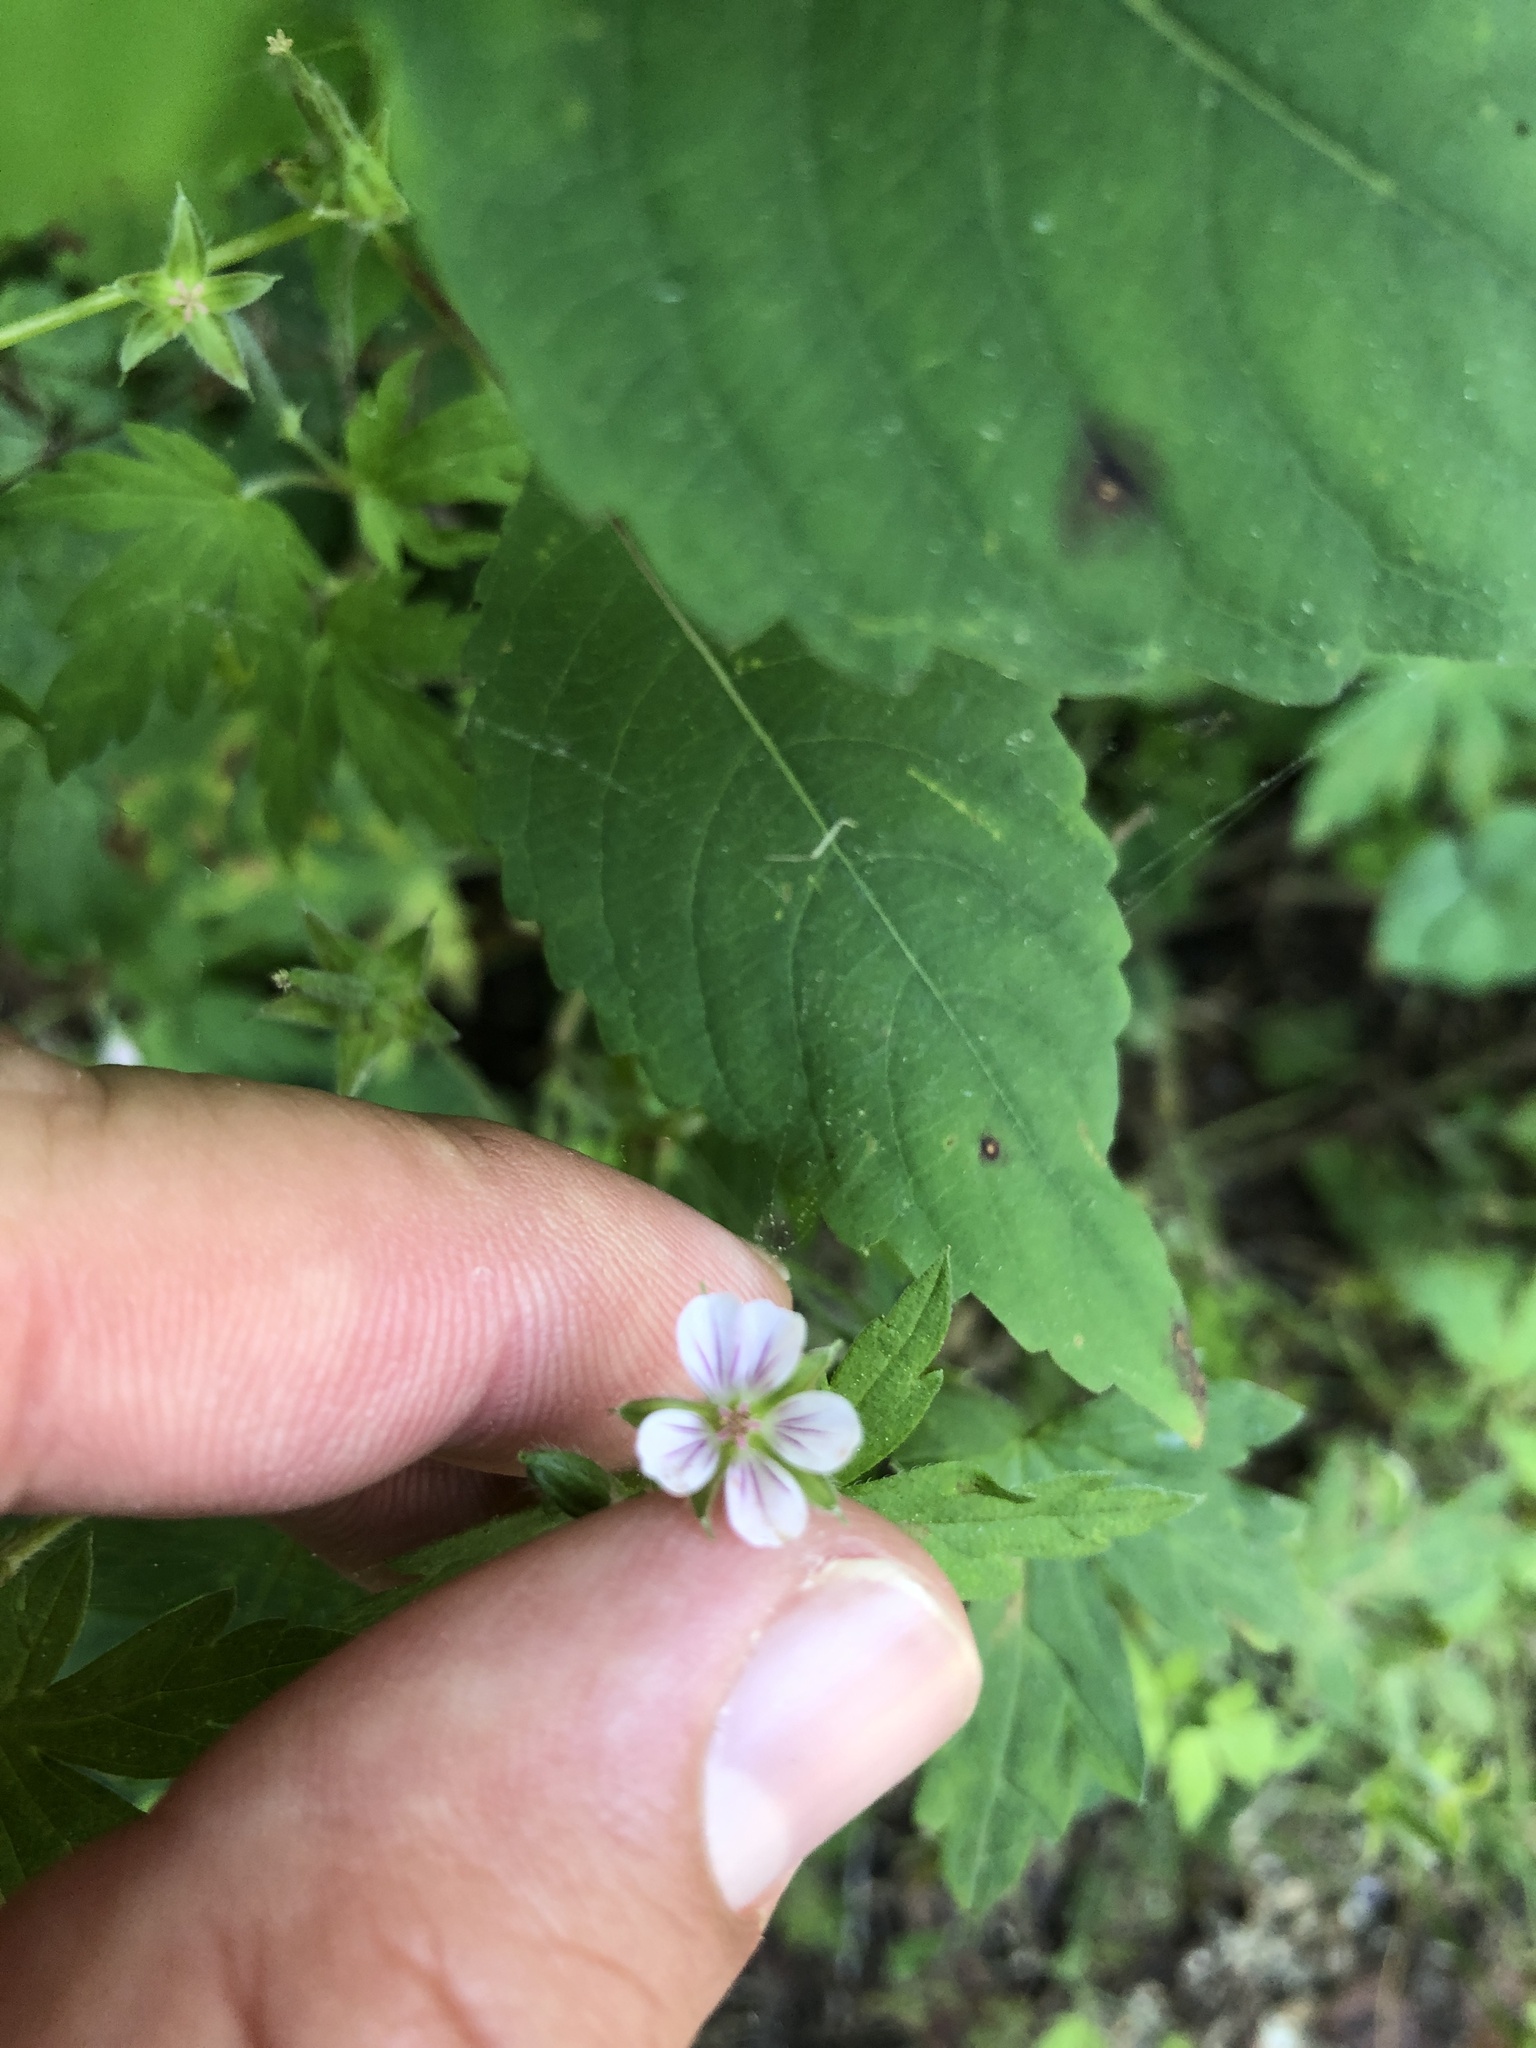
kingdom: Plantae
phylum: Tracheophyta
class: Magnoliopsida
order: Geraniales
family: Geraniaceae
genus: Geranium
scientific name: Geranium sibiricum
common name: Siberian crane's-bill
